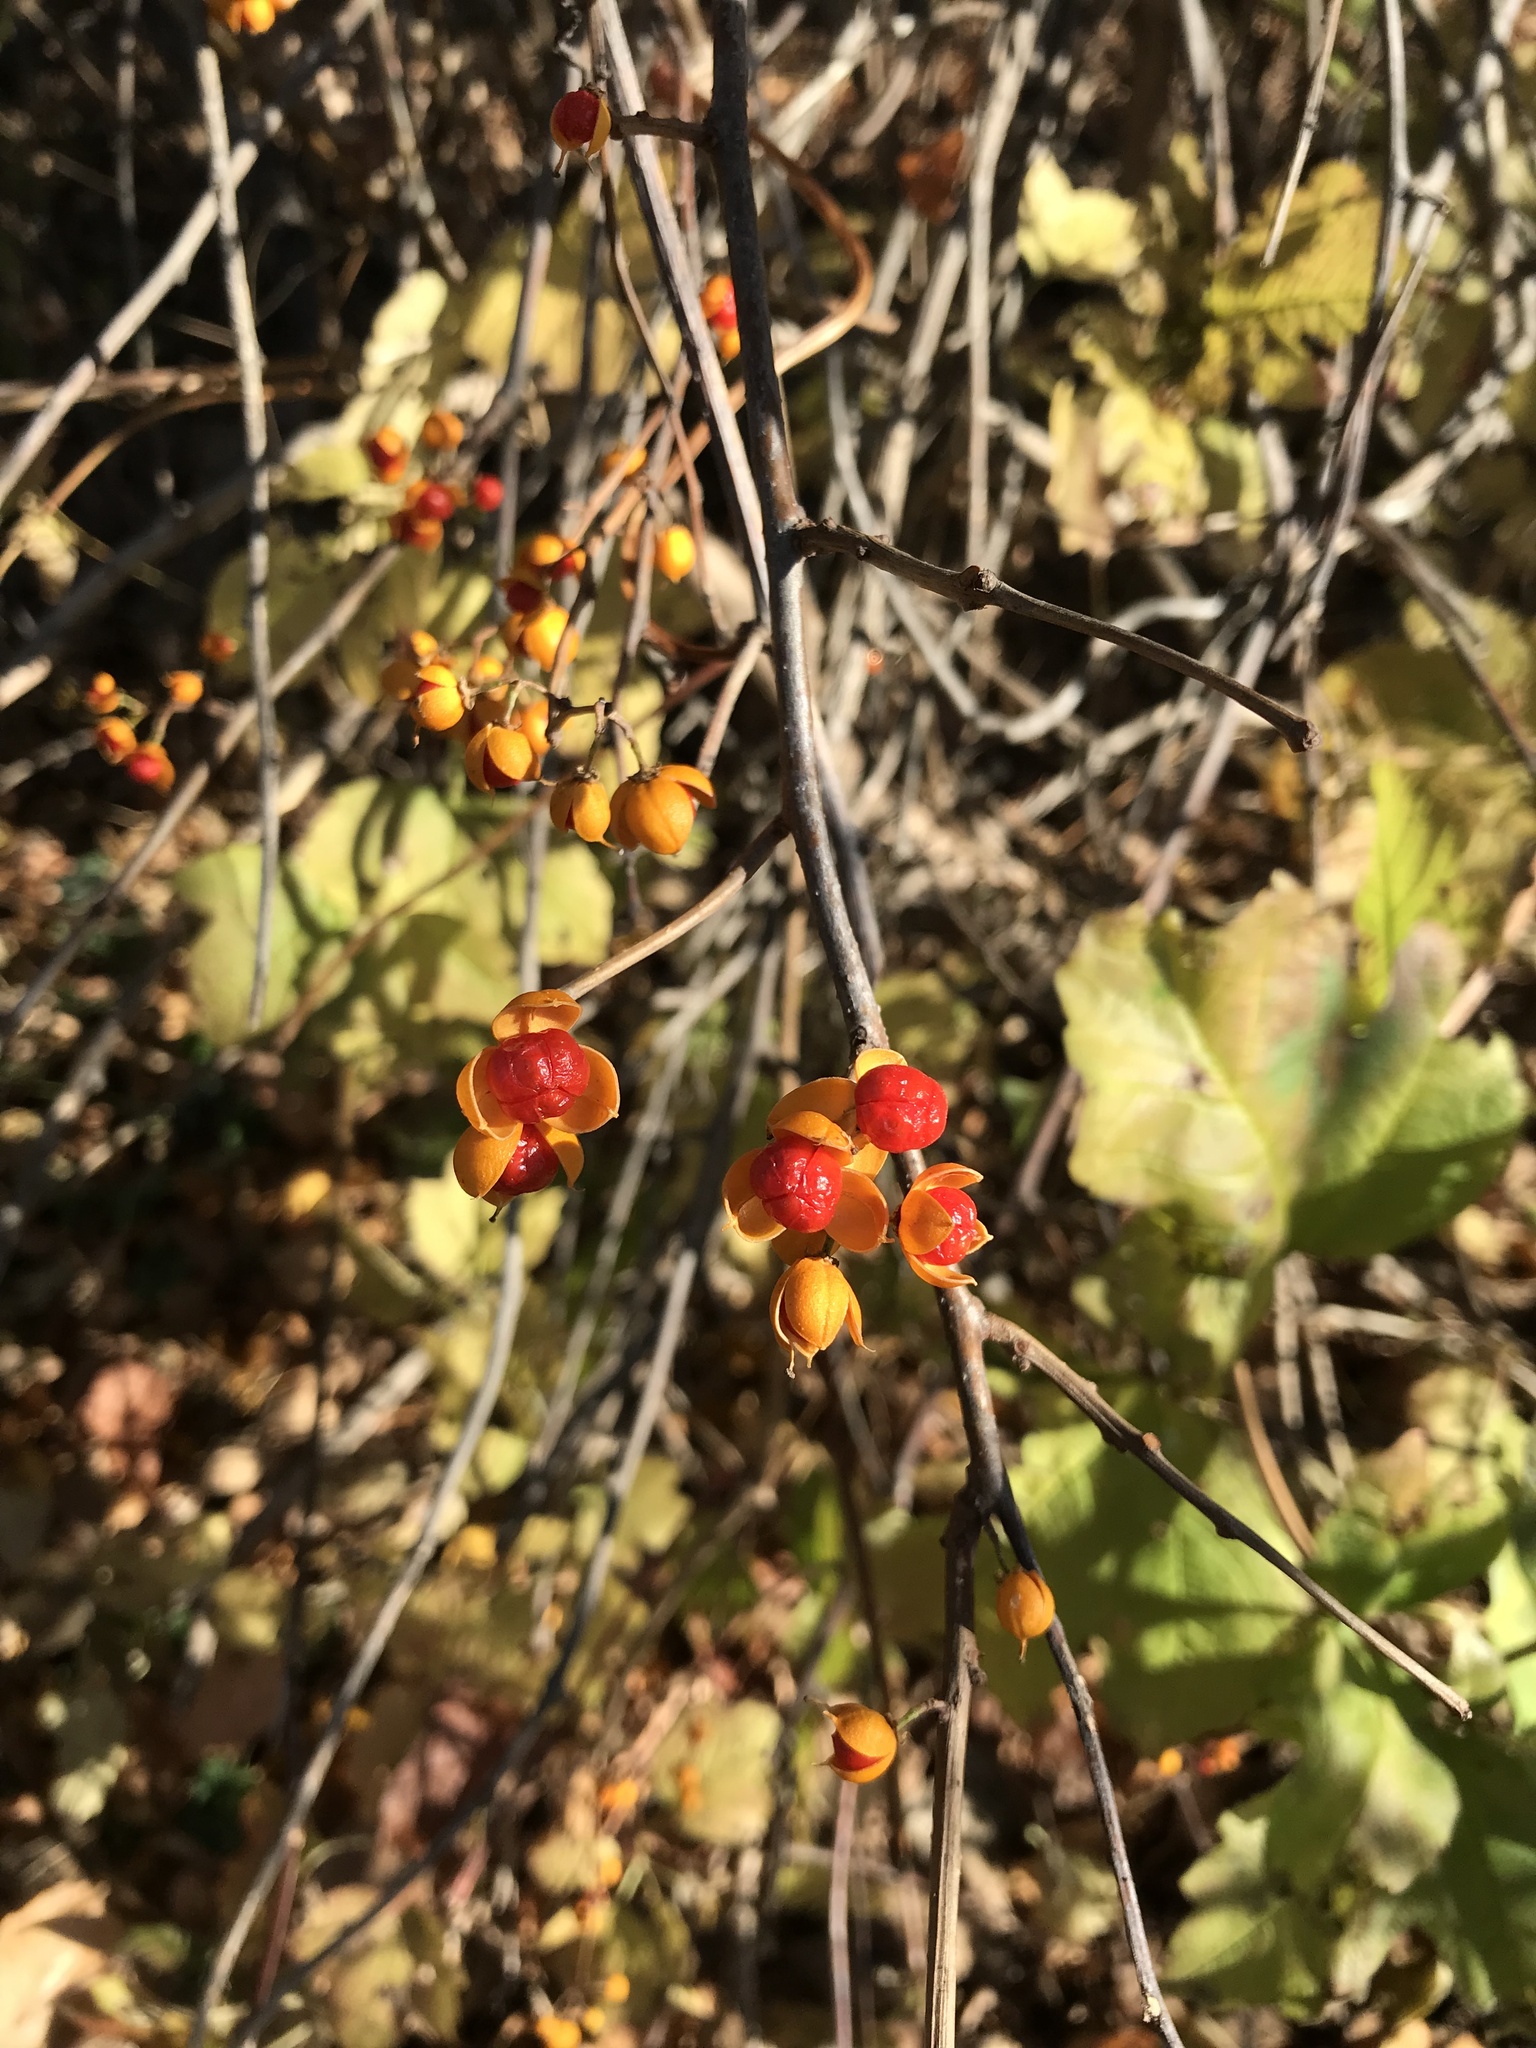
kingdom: Plantae
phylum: Tracheophyta
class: Magnoliopsida
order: Celastrales
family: Celastraceae
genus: Celastrus
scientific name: Celastrus orbiculatus
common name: Oriental bittersweet
